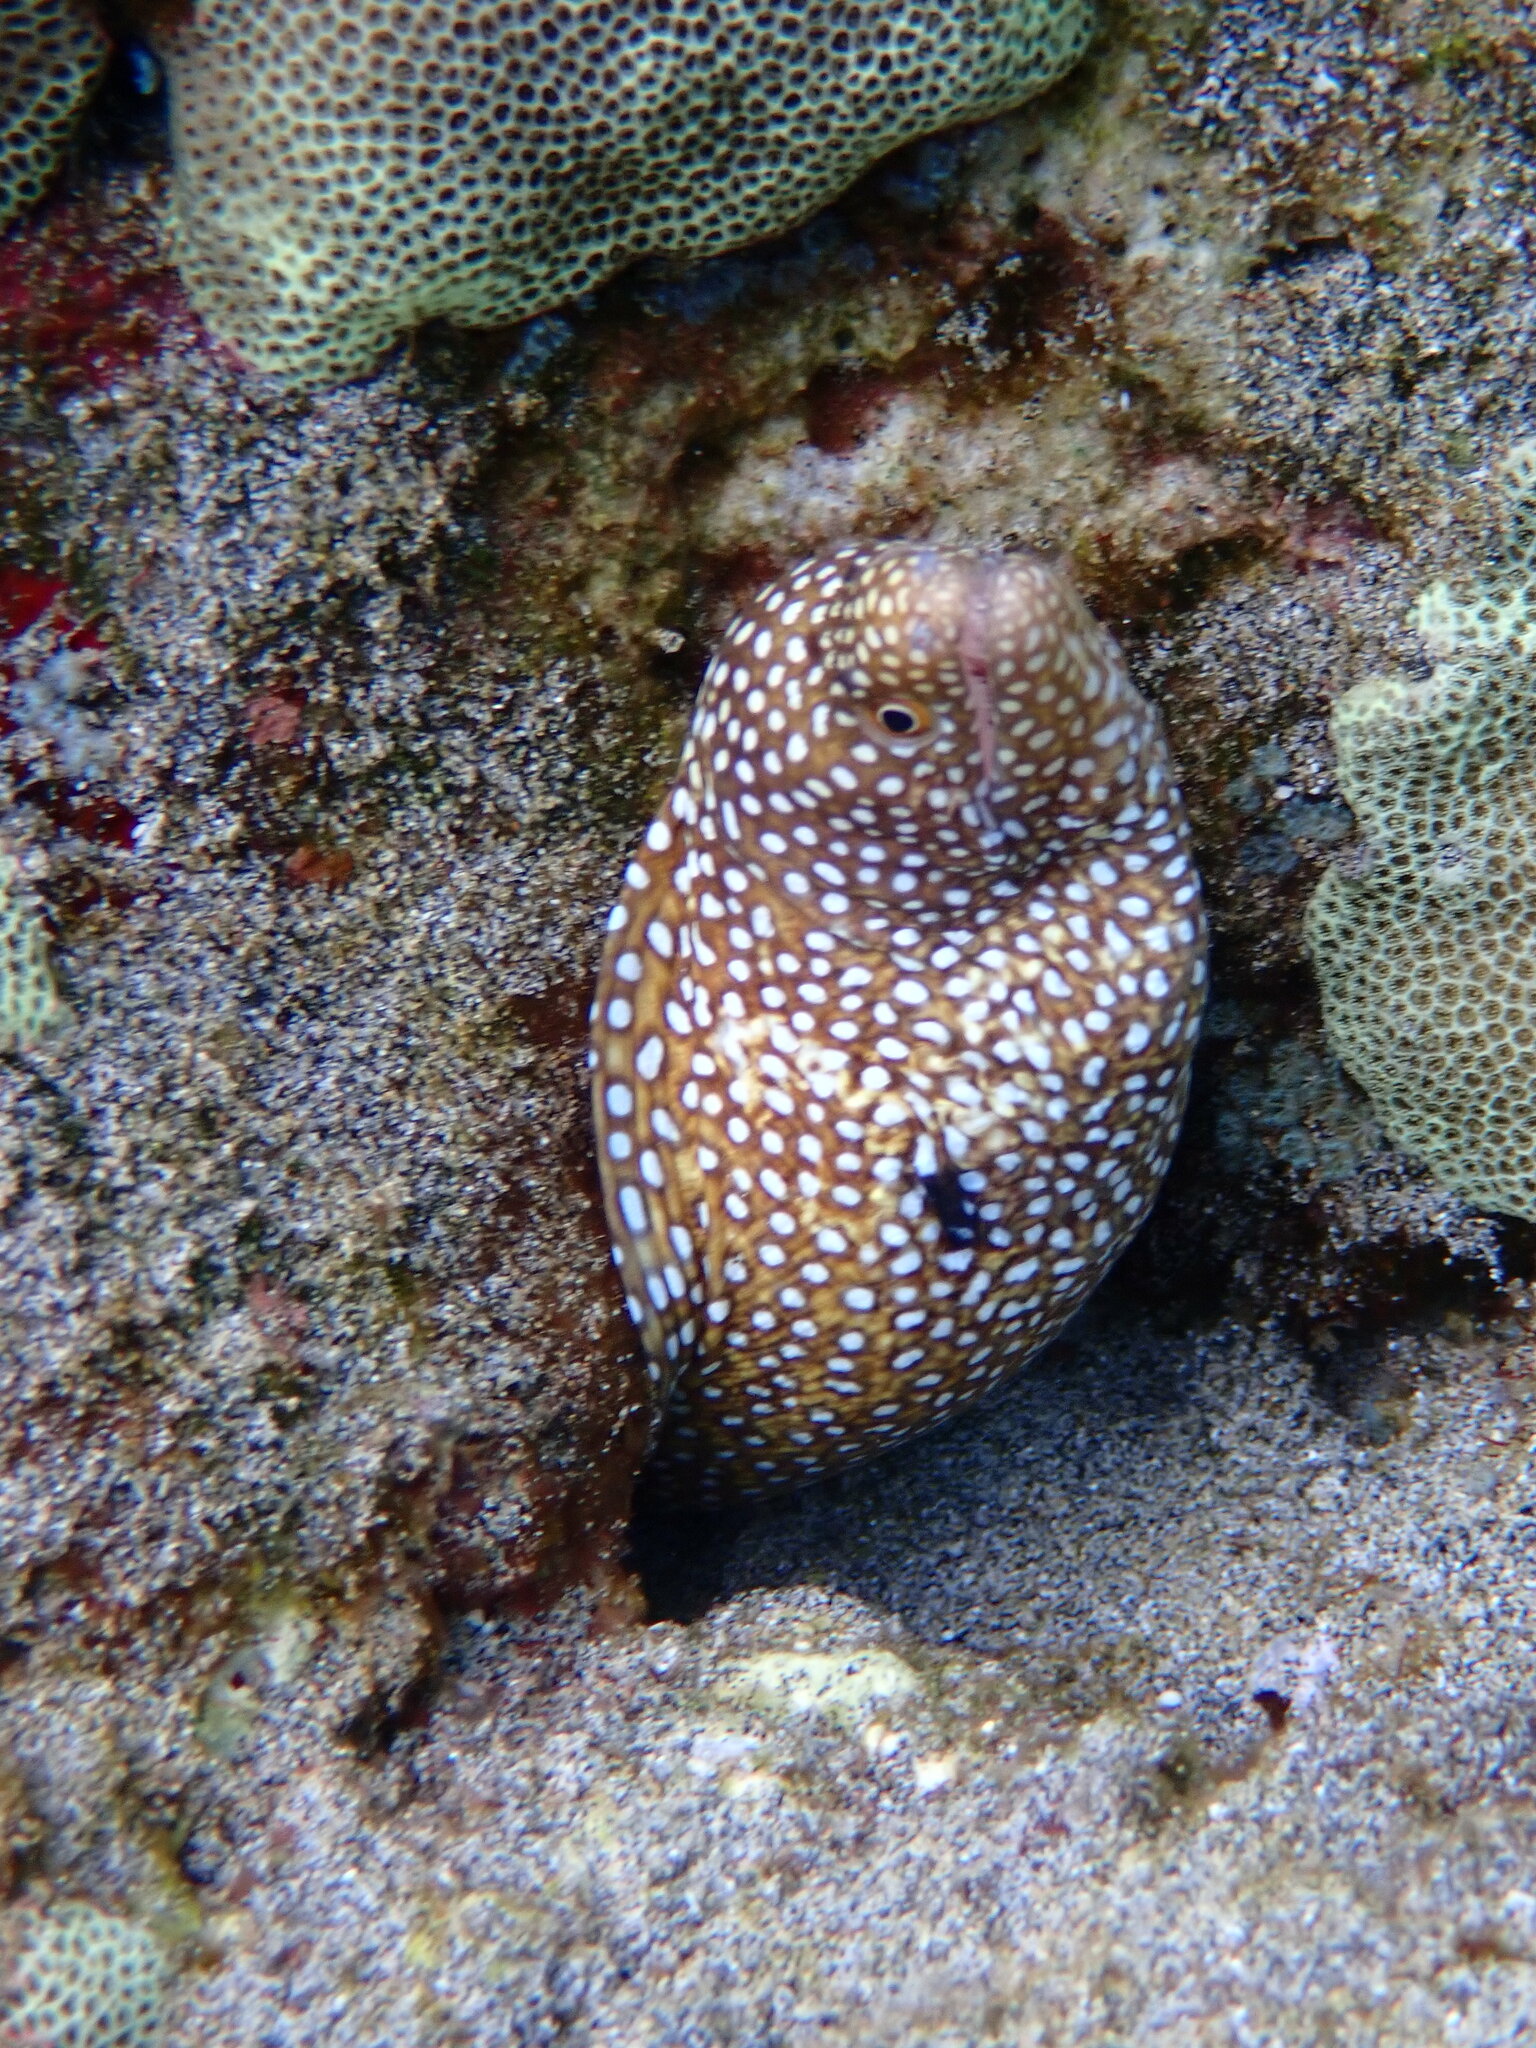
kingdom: Animalia
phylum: Chordata
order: Anguilliformes
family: Muraenidae
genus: Gymnothorax
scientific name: Gymnothorax meleagris
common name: Guineafowl moray
